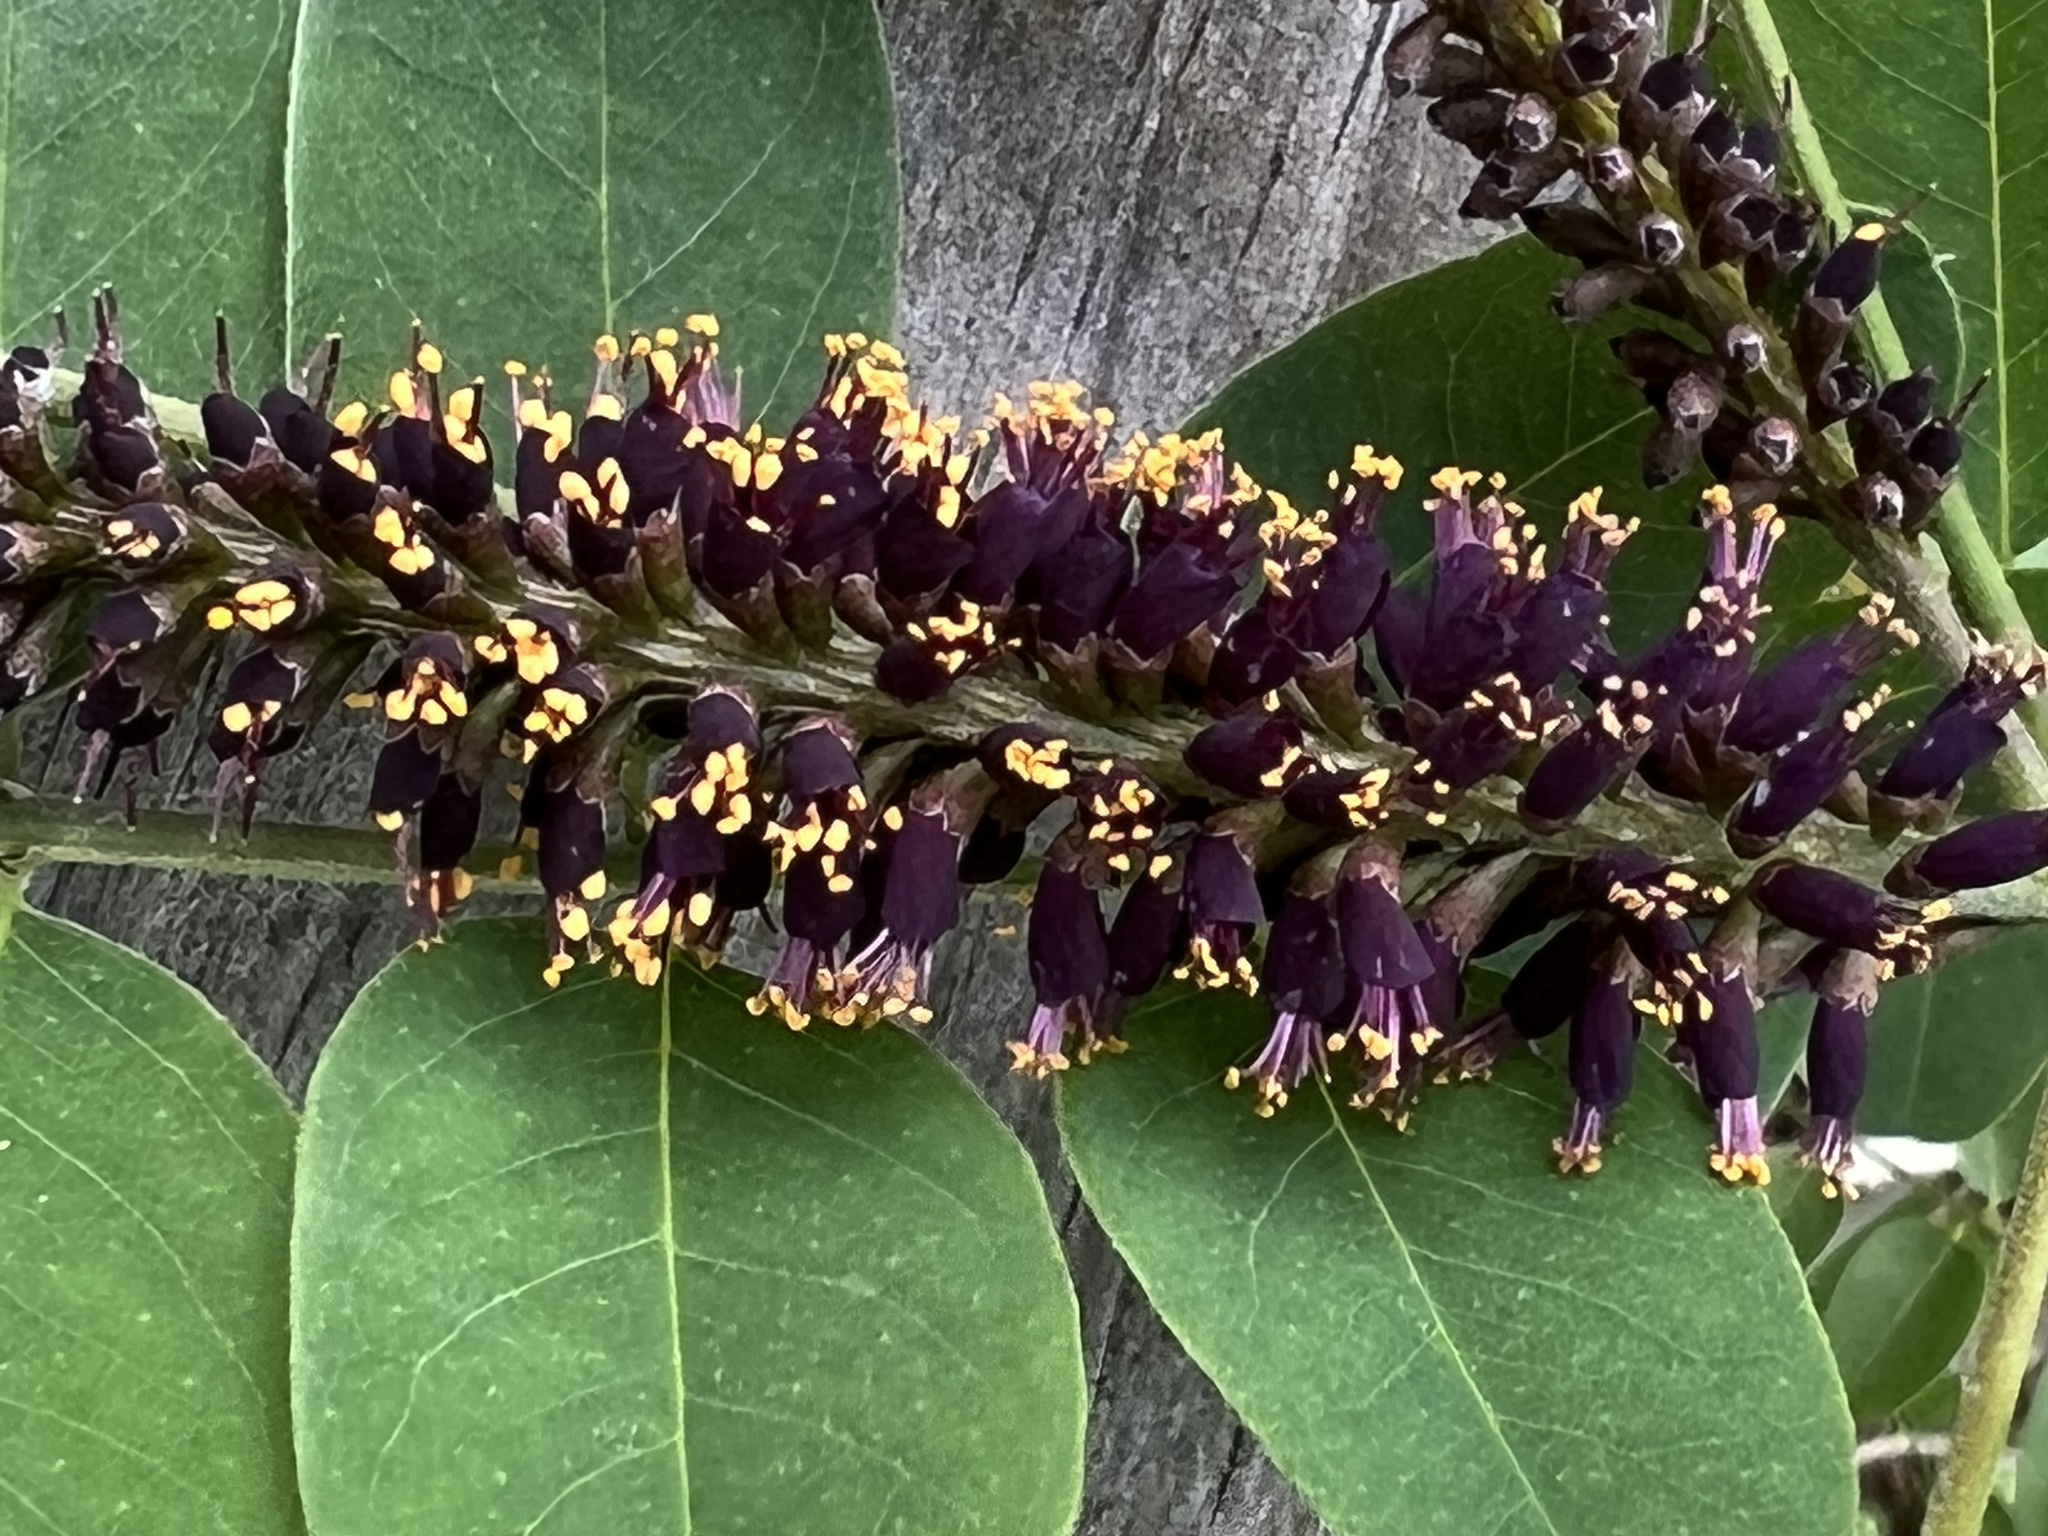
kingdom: Plantae
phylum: Tracheophyta
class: Magnoliopsida
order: Fabales
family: Fabaceae
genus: Amorpha
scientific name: Amorpha fruticosa
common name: False indigo
